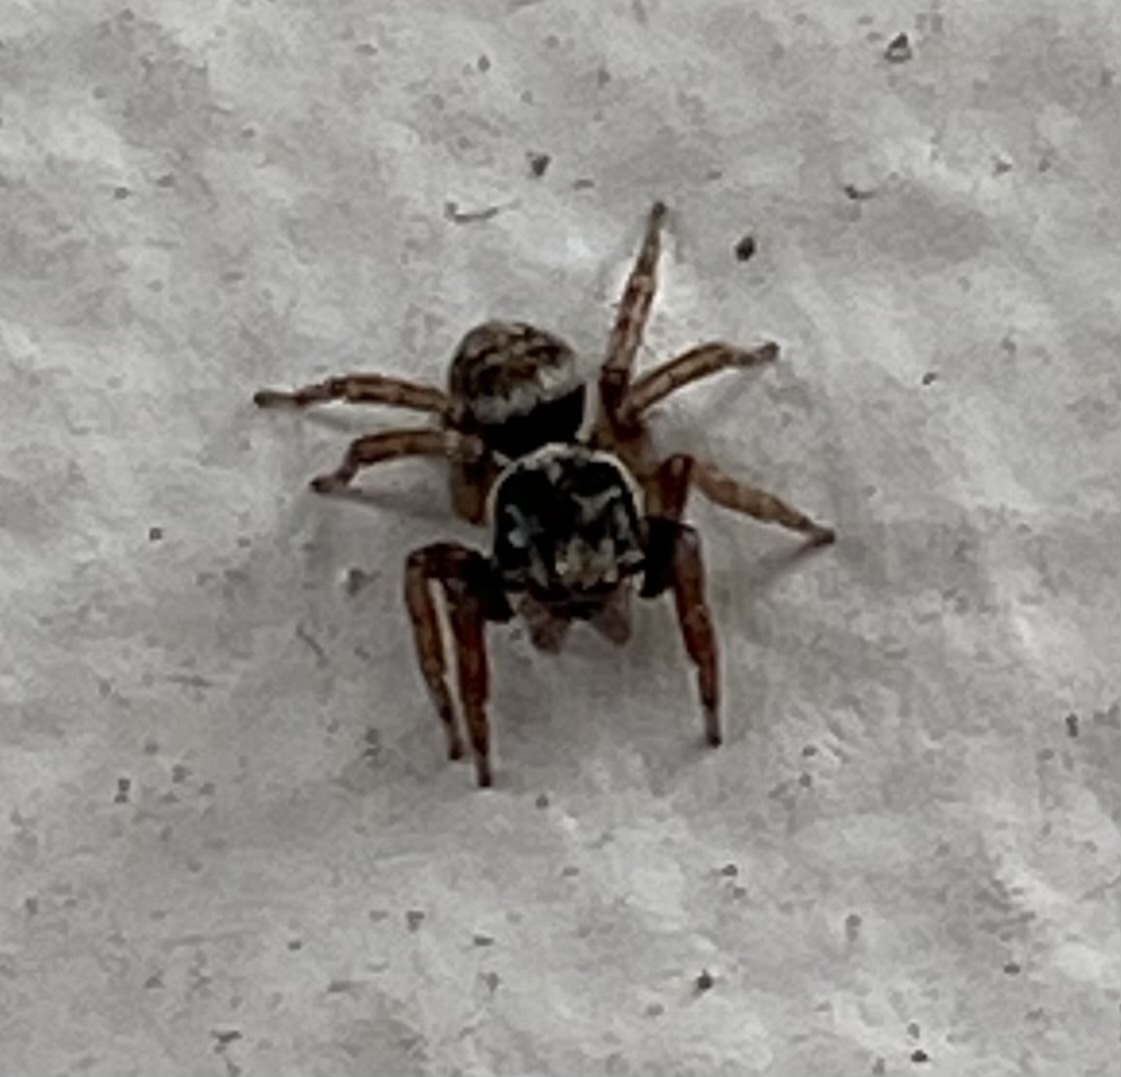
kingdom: Animalia
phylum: Arthropoda
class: Arachnida
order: Araneae
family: Salticidae
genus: Hasarius
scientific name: Hasarius adansoni
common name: Jumping spider
